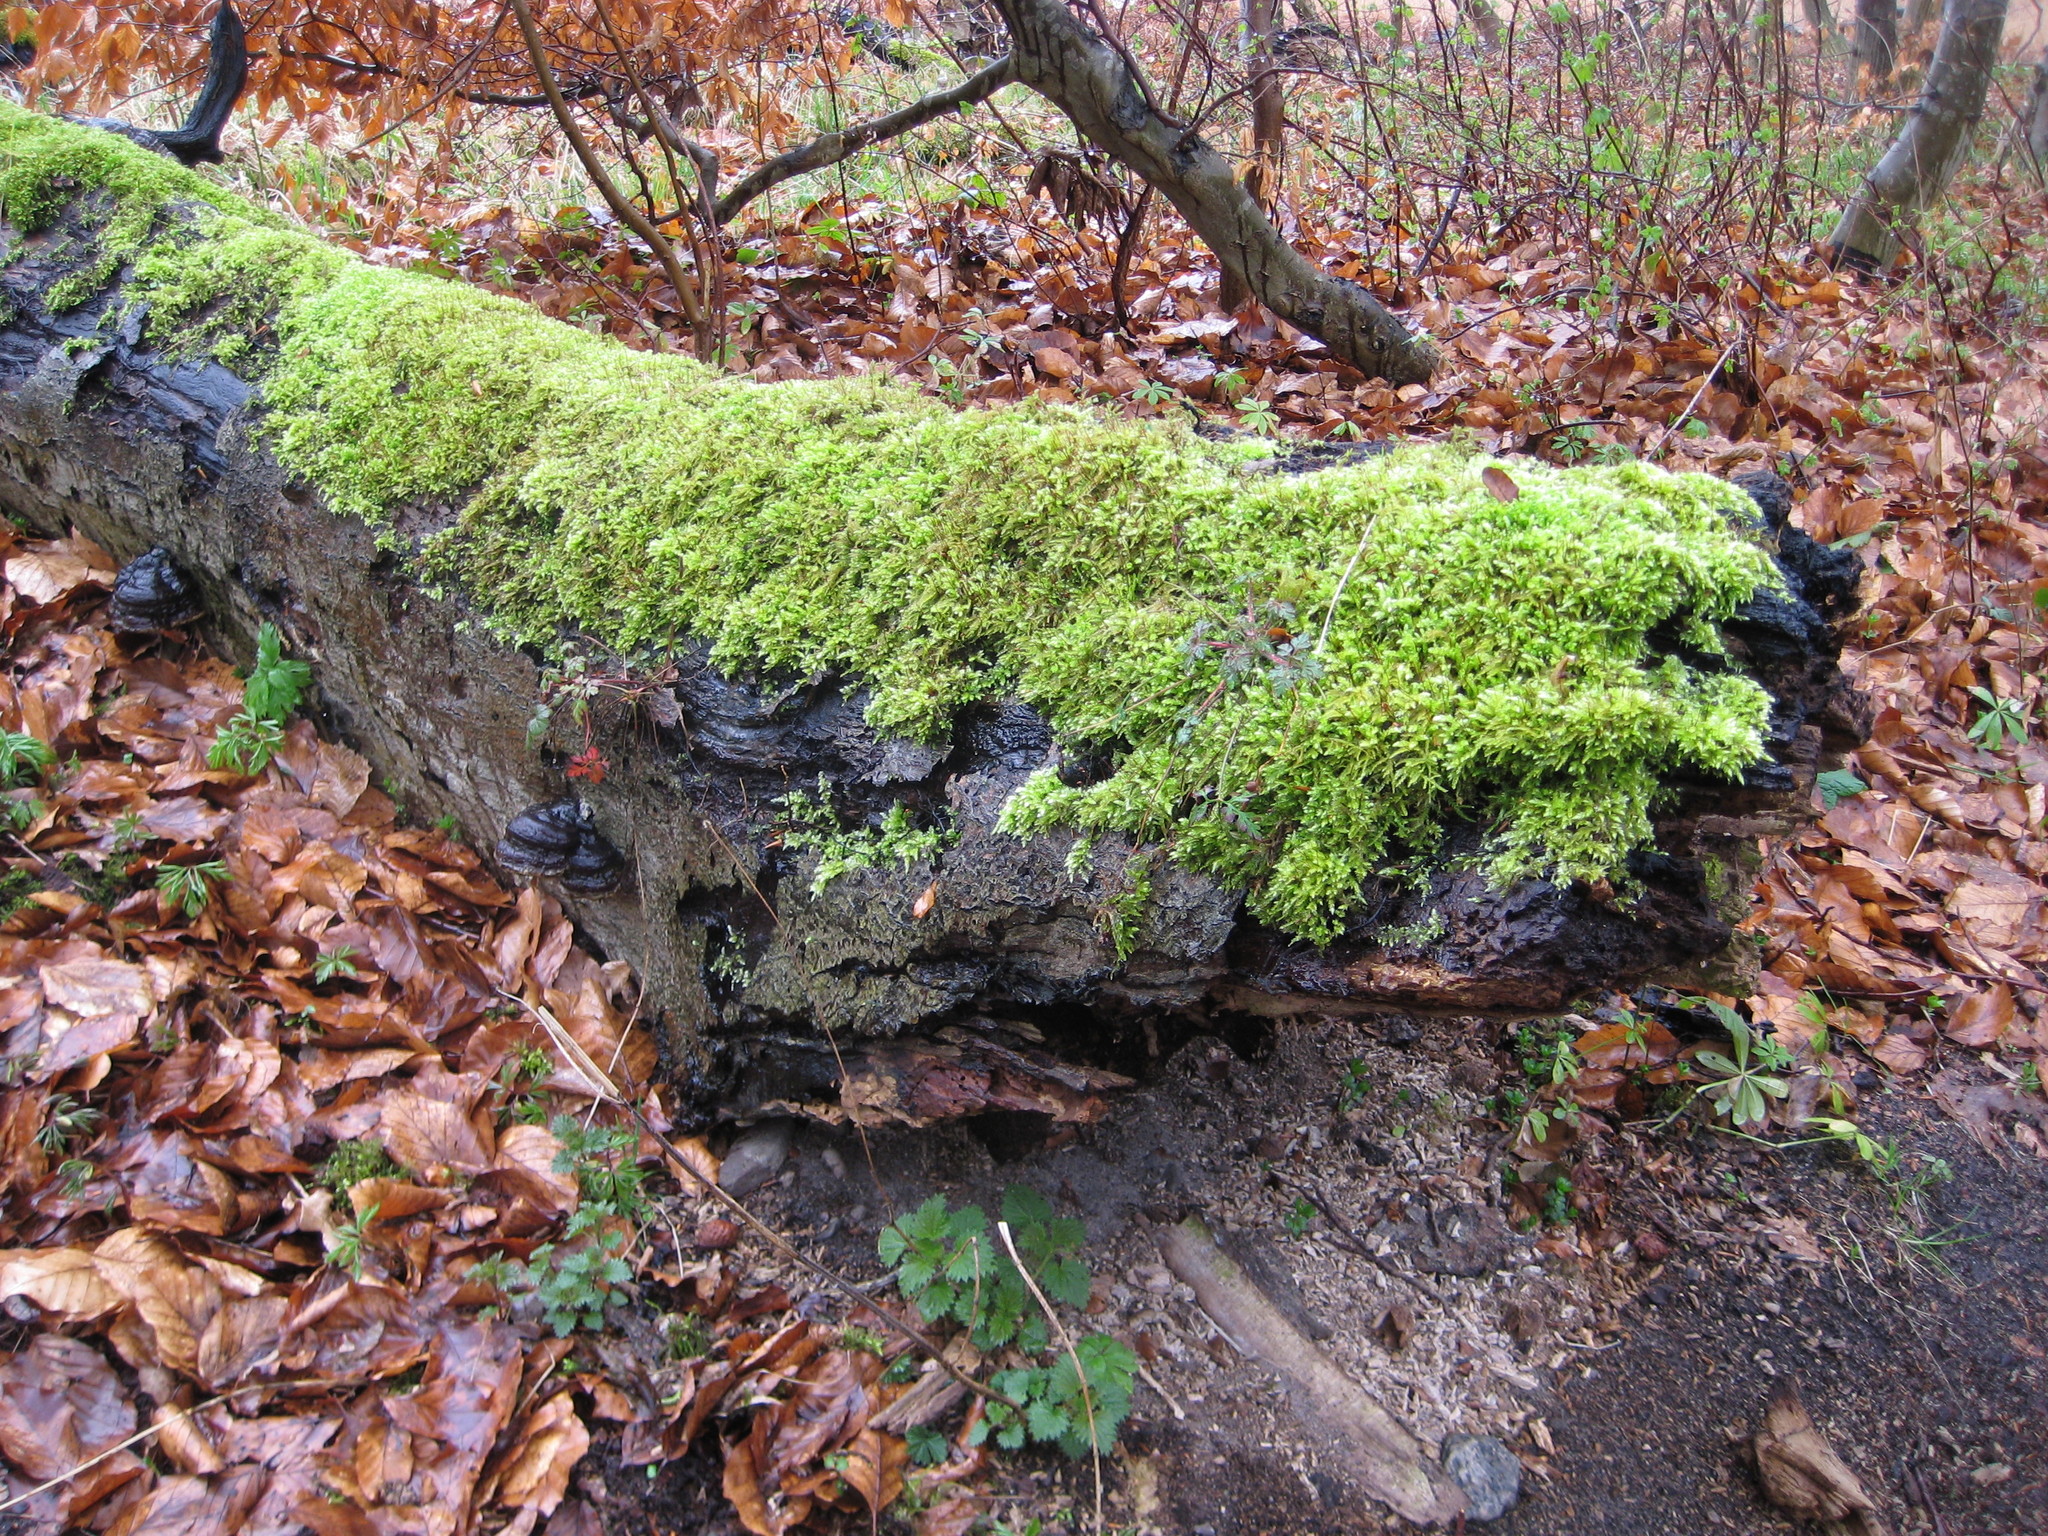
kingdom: Plantae
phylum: Bryophyta
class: Bryopsida
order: Hypnales
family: Brachytheciaceae
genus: Brachythecium
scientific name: Brachythecium rutabulum
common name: Rough-stalked feather-moss
